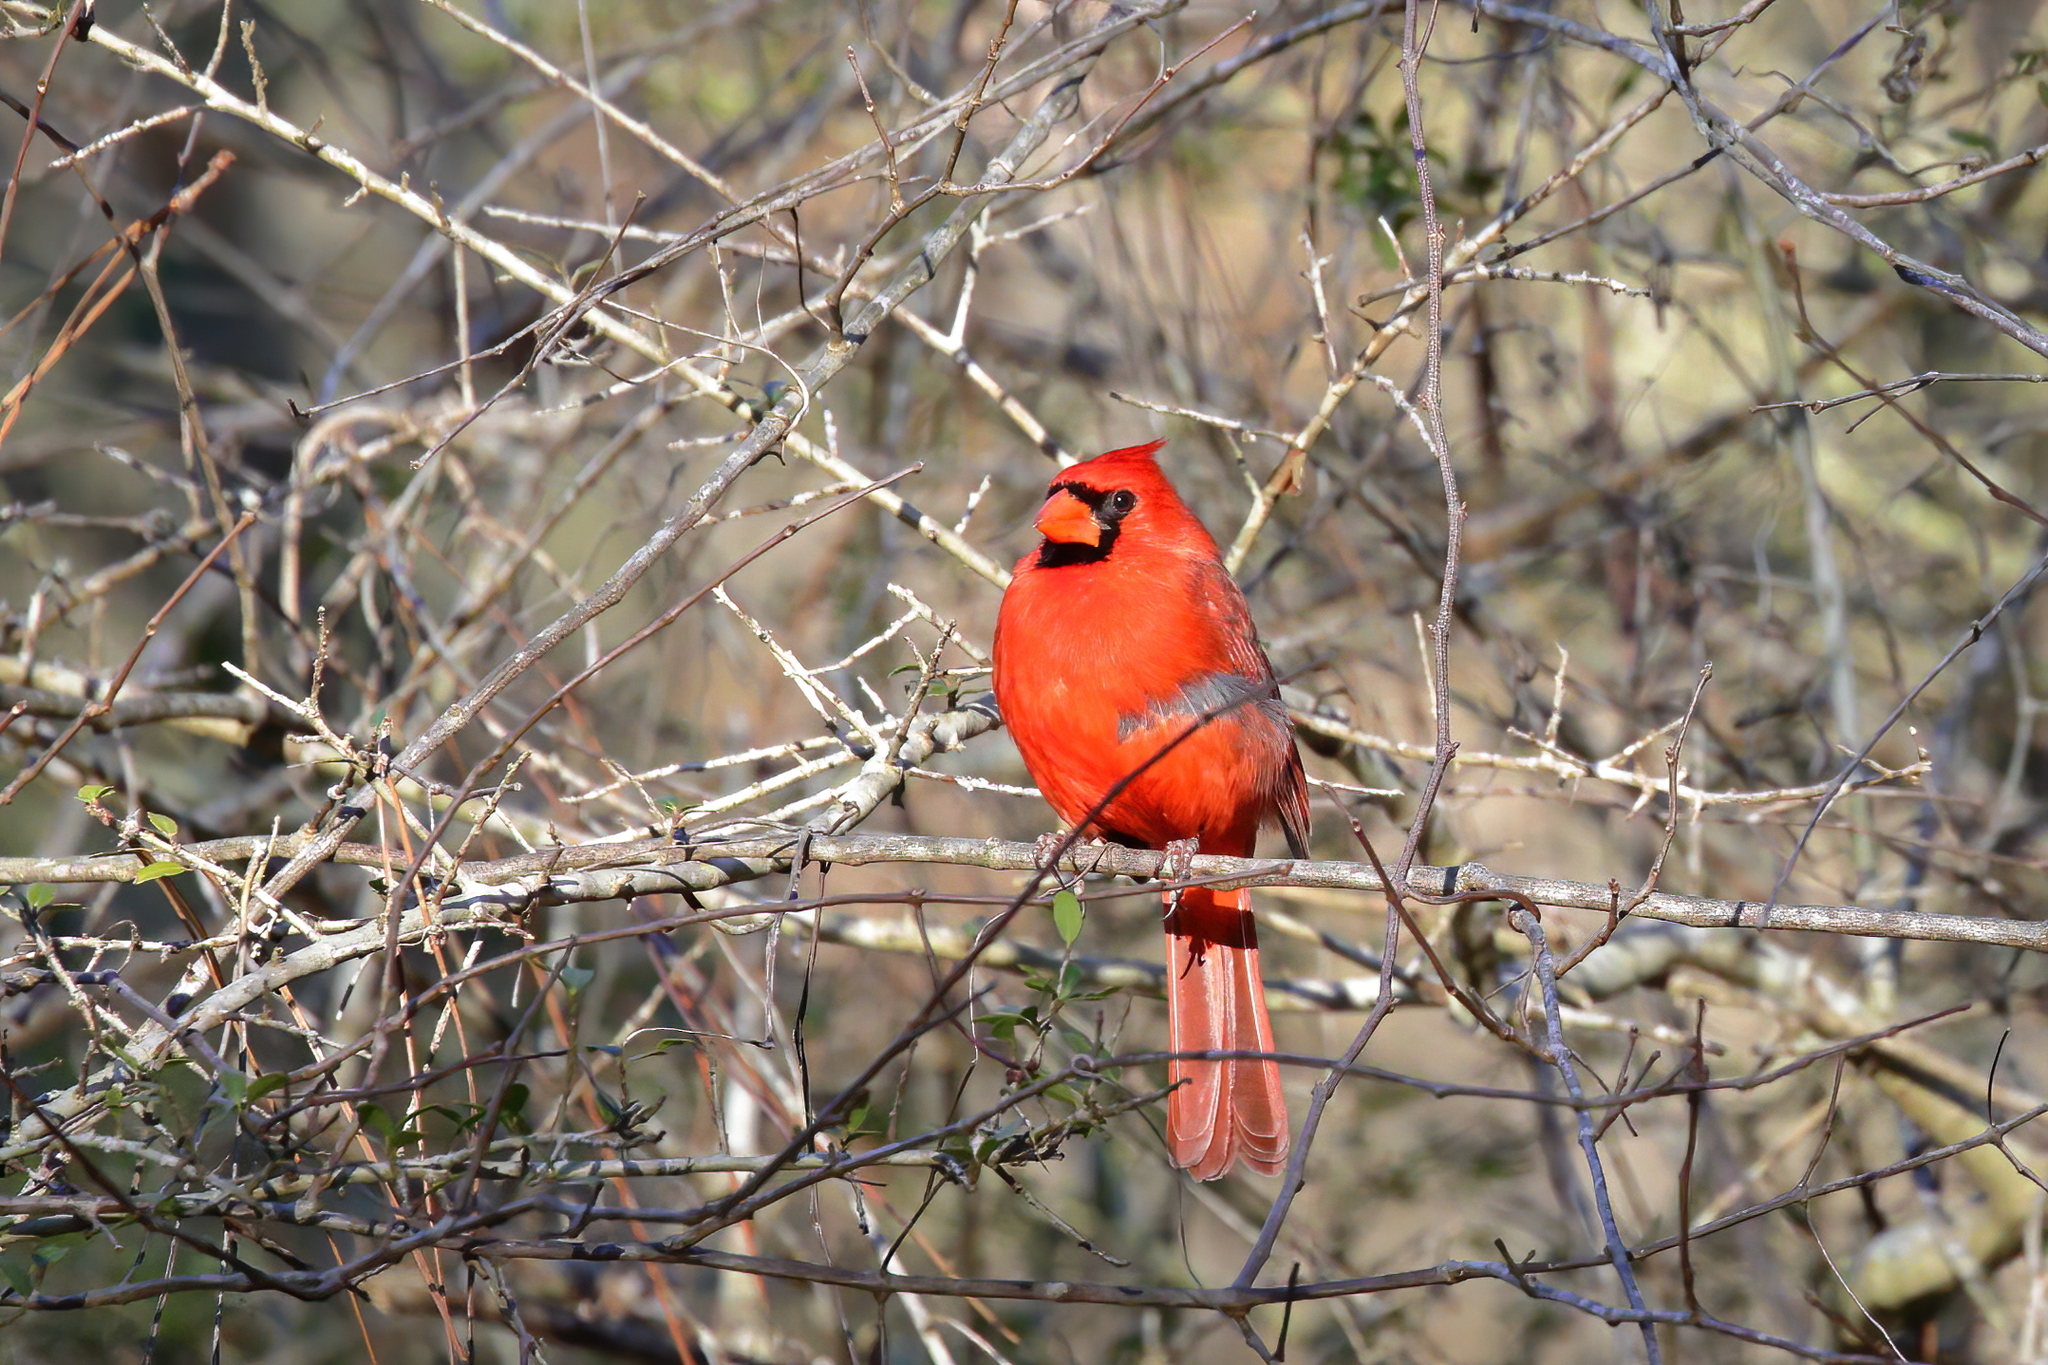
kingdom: Animalia
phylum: Chordata
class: Aves
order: Passeriformes
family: Cardinalidae
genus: Cardinalis
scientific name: Cardinalis cardinalis
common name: Northern cardinal
